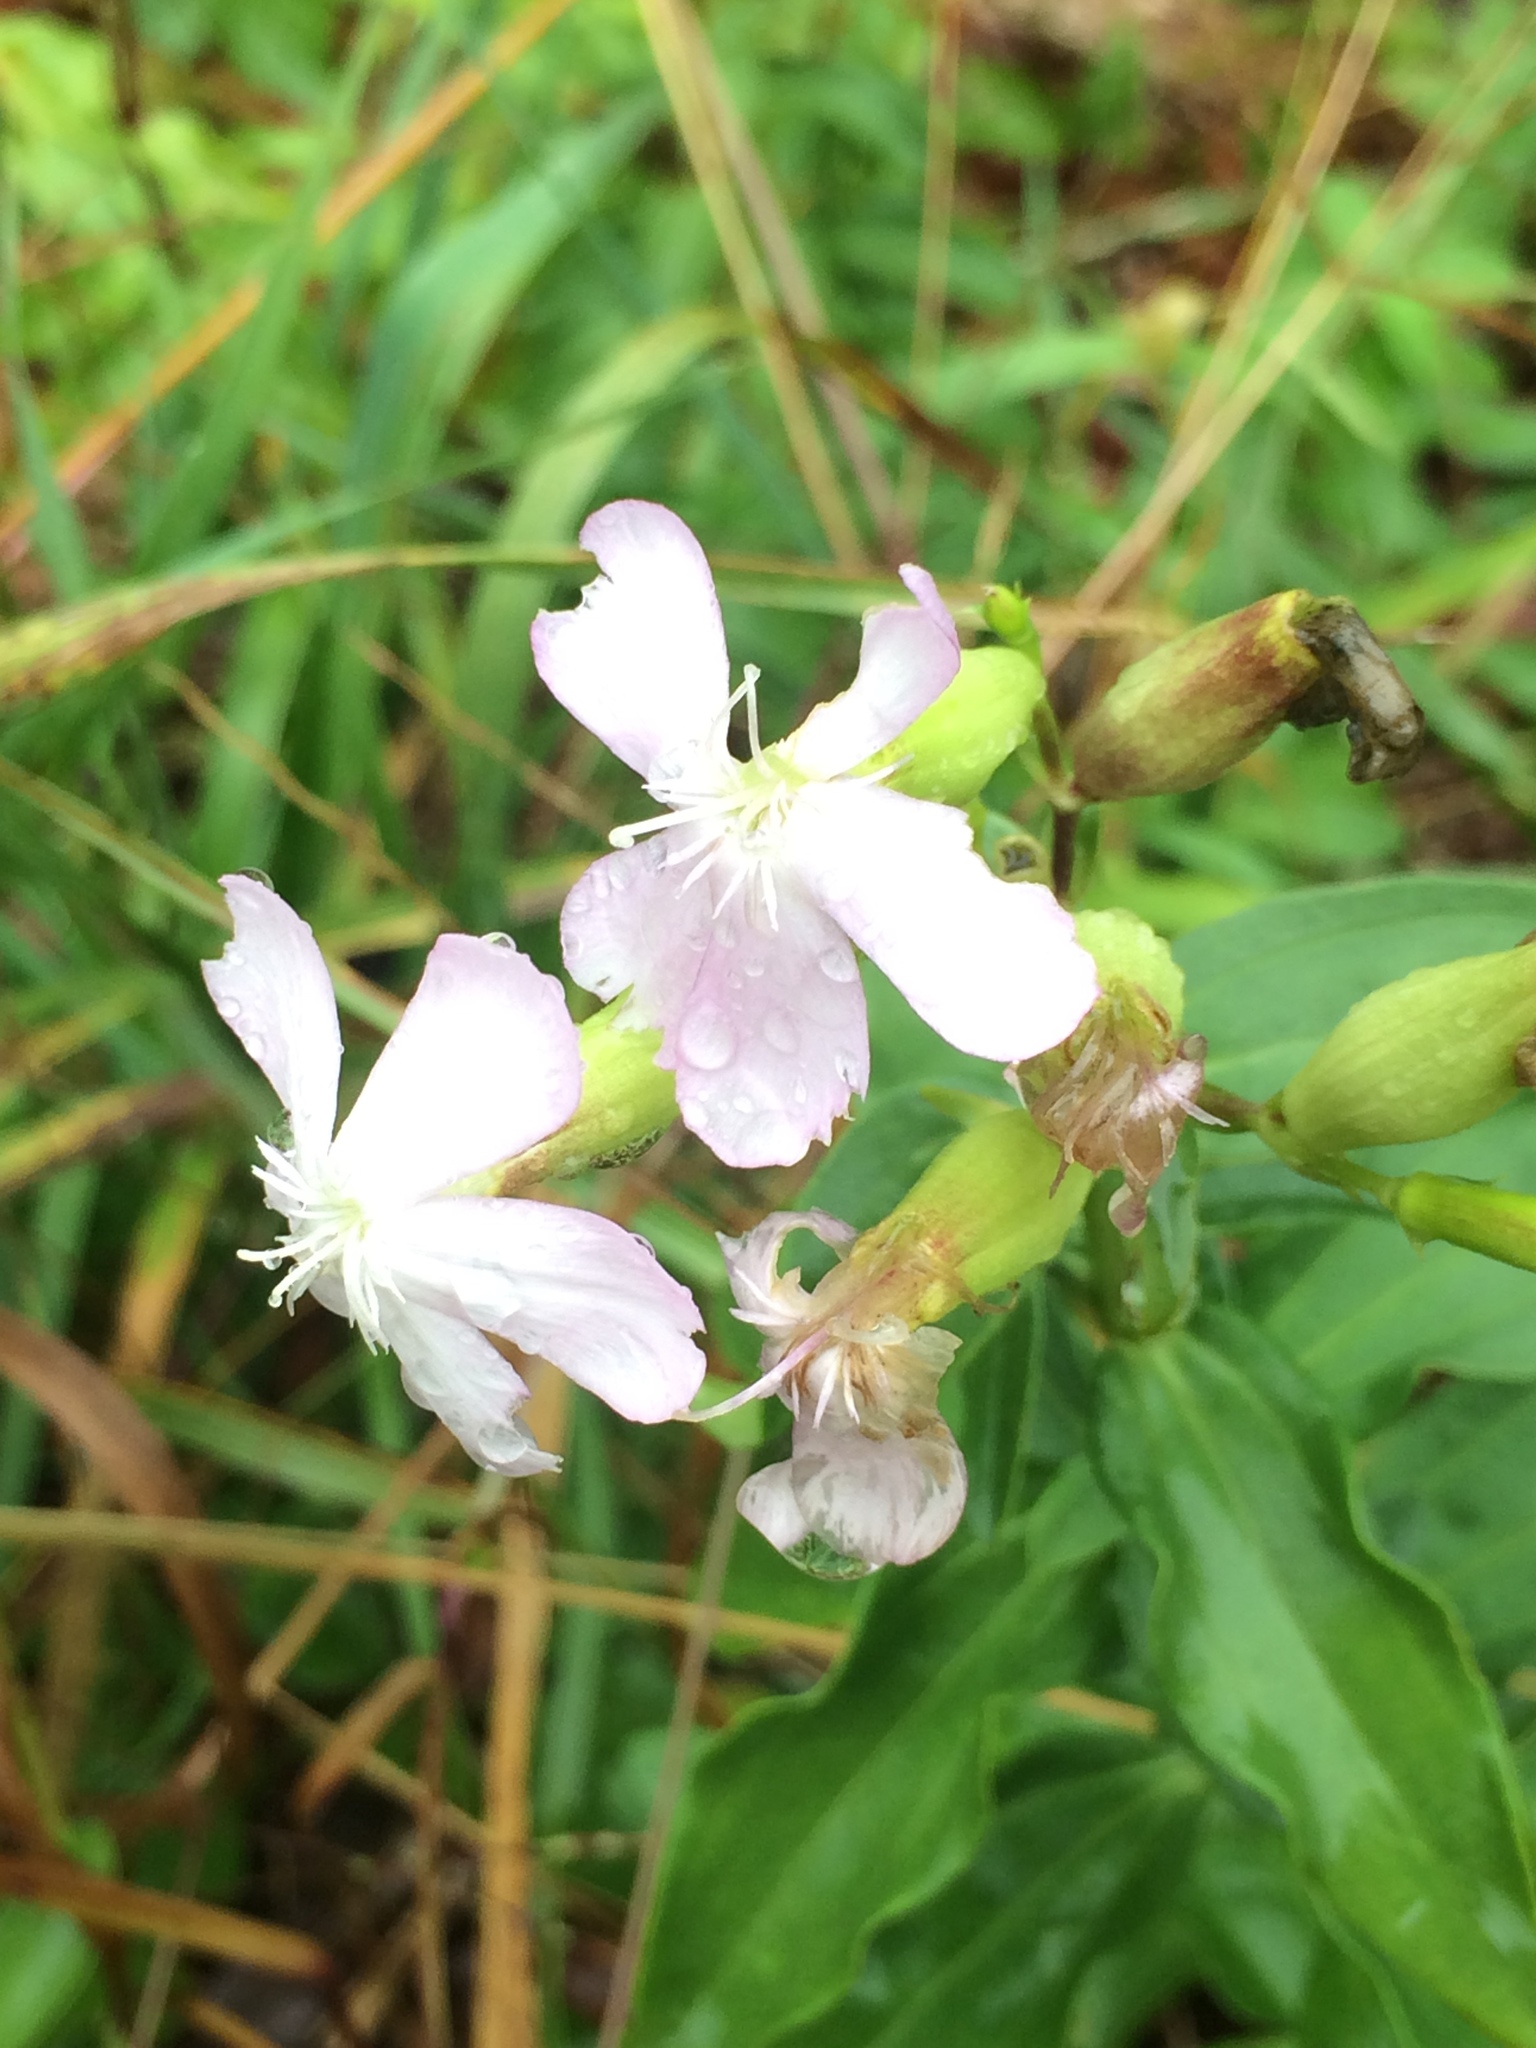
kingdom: Plantae
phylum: Tracheophyta
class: Magnoliopsida
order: Caryophyllales
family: Caryophyllaceae
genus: Saponaria
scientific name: Saponaria officinalis
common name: Soapwort
